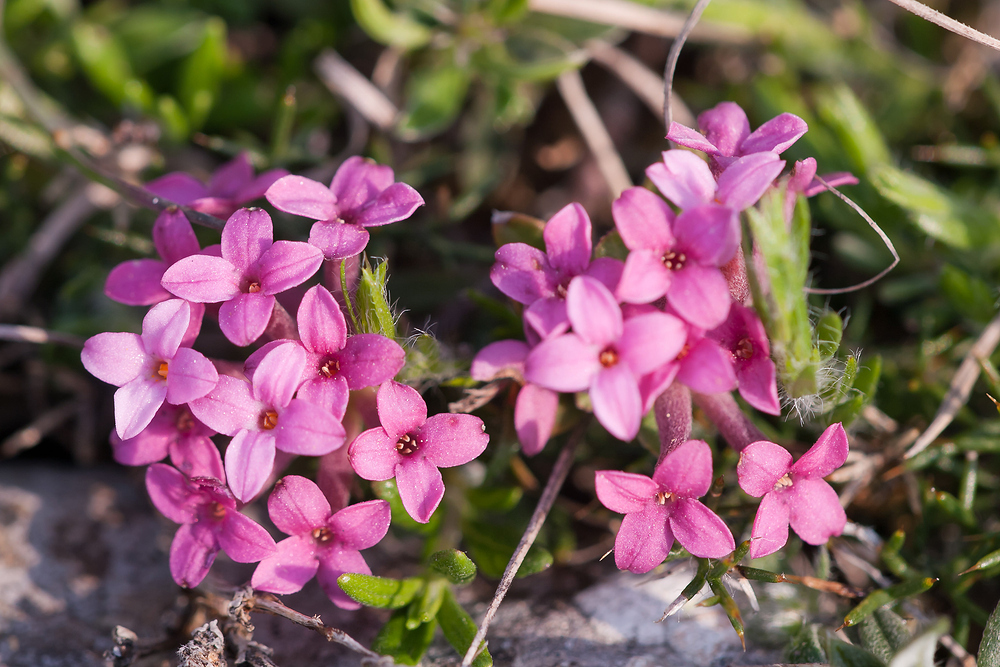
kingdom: Plantae
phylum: Tracheophyta
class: Magnoliopsida
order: Malvales
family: Thymelaeaceae
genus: Daphne
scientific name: Daphne cneorum
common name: Garland-flower
